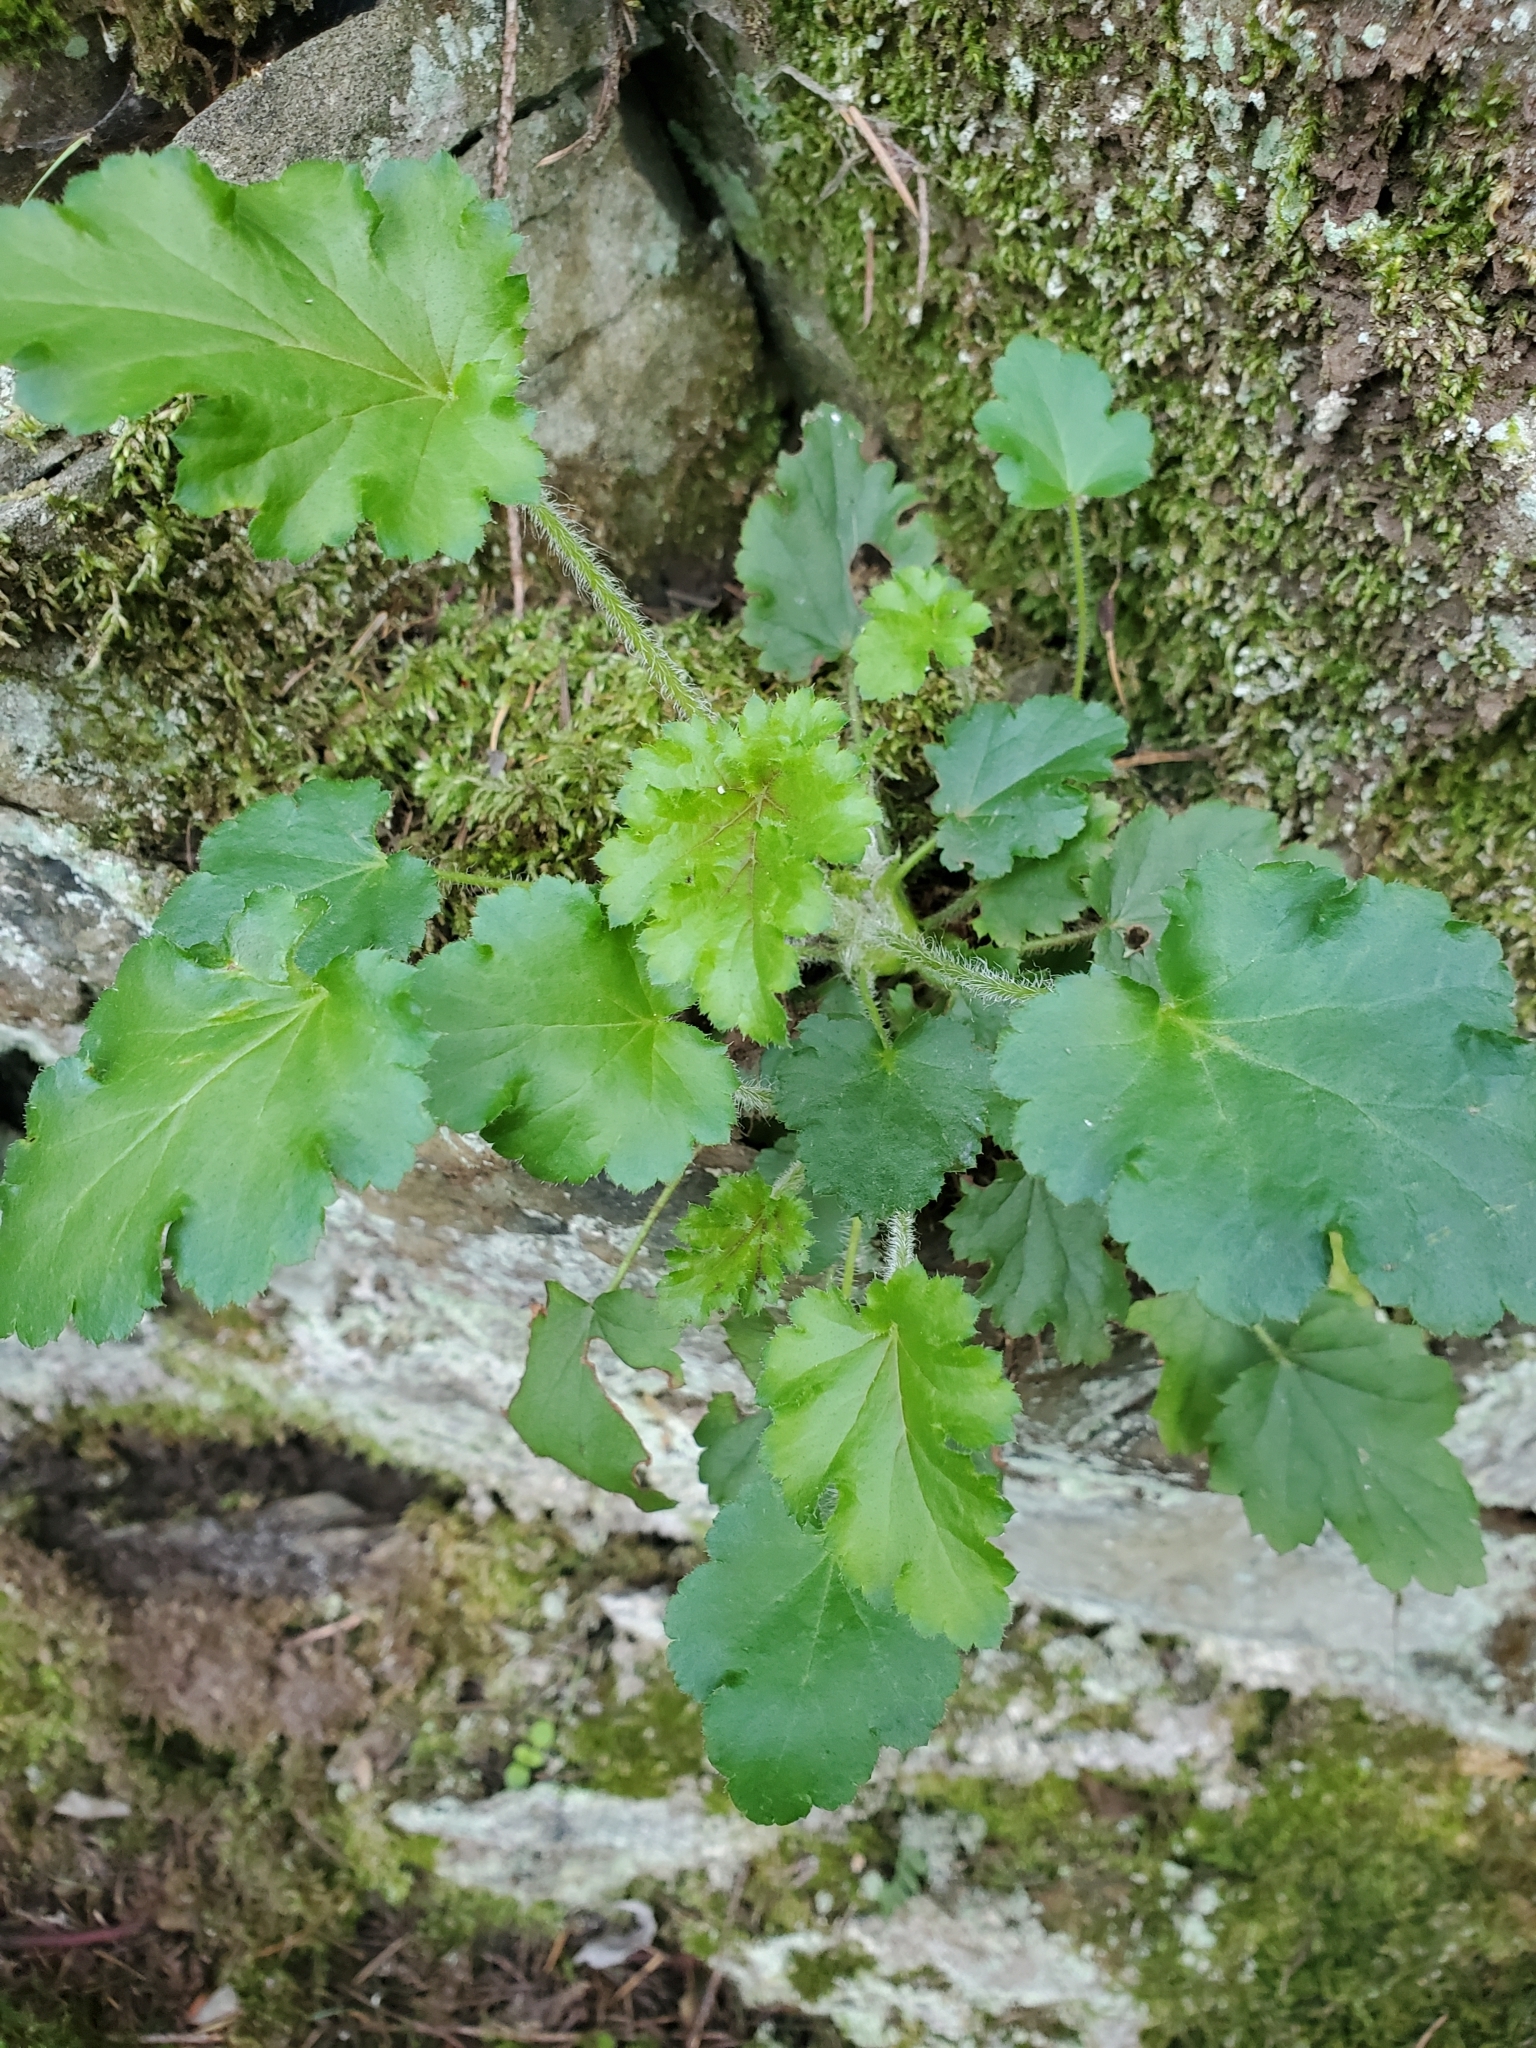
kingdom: Plantae
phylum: Tracheophyta
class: Magnoliopsida
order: Saxifragales
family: Saxifragaceae
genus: Heuchera
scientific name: Heuchera micrantha
